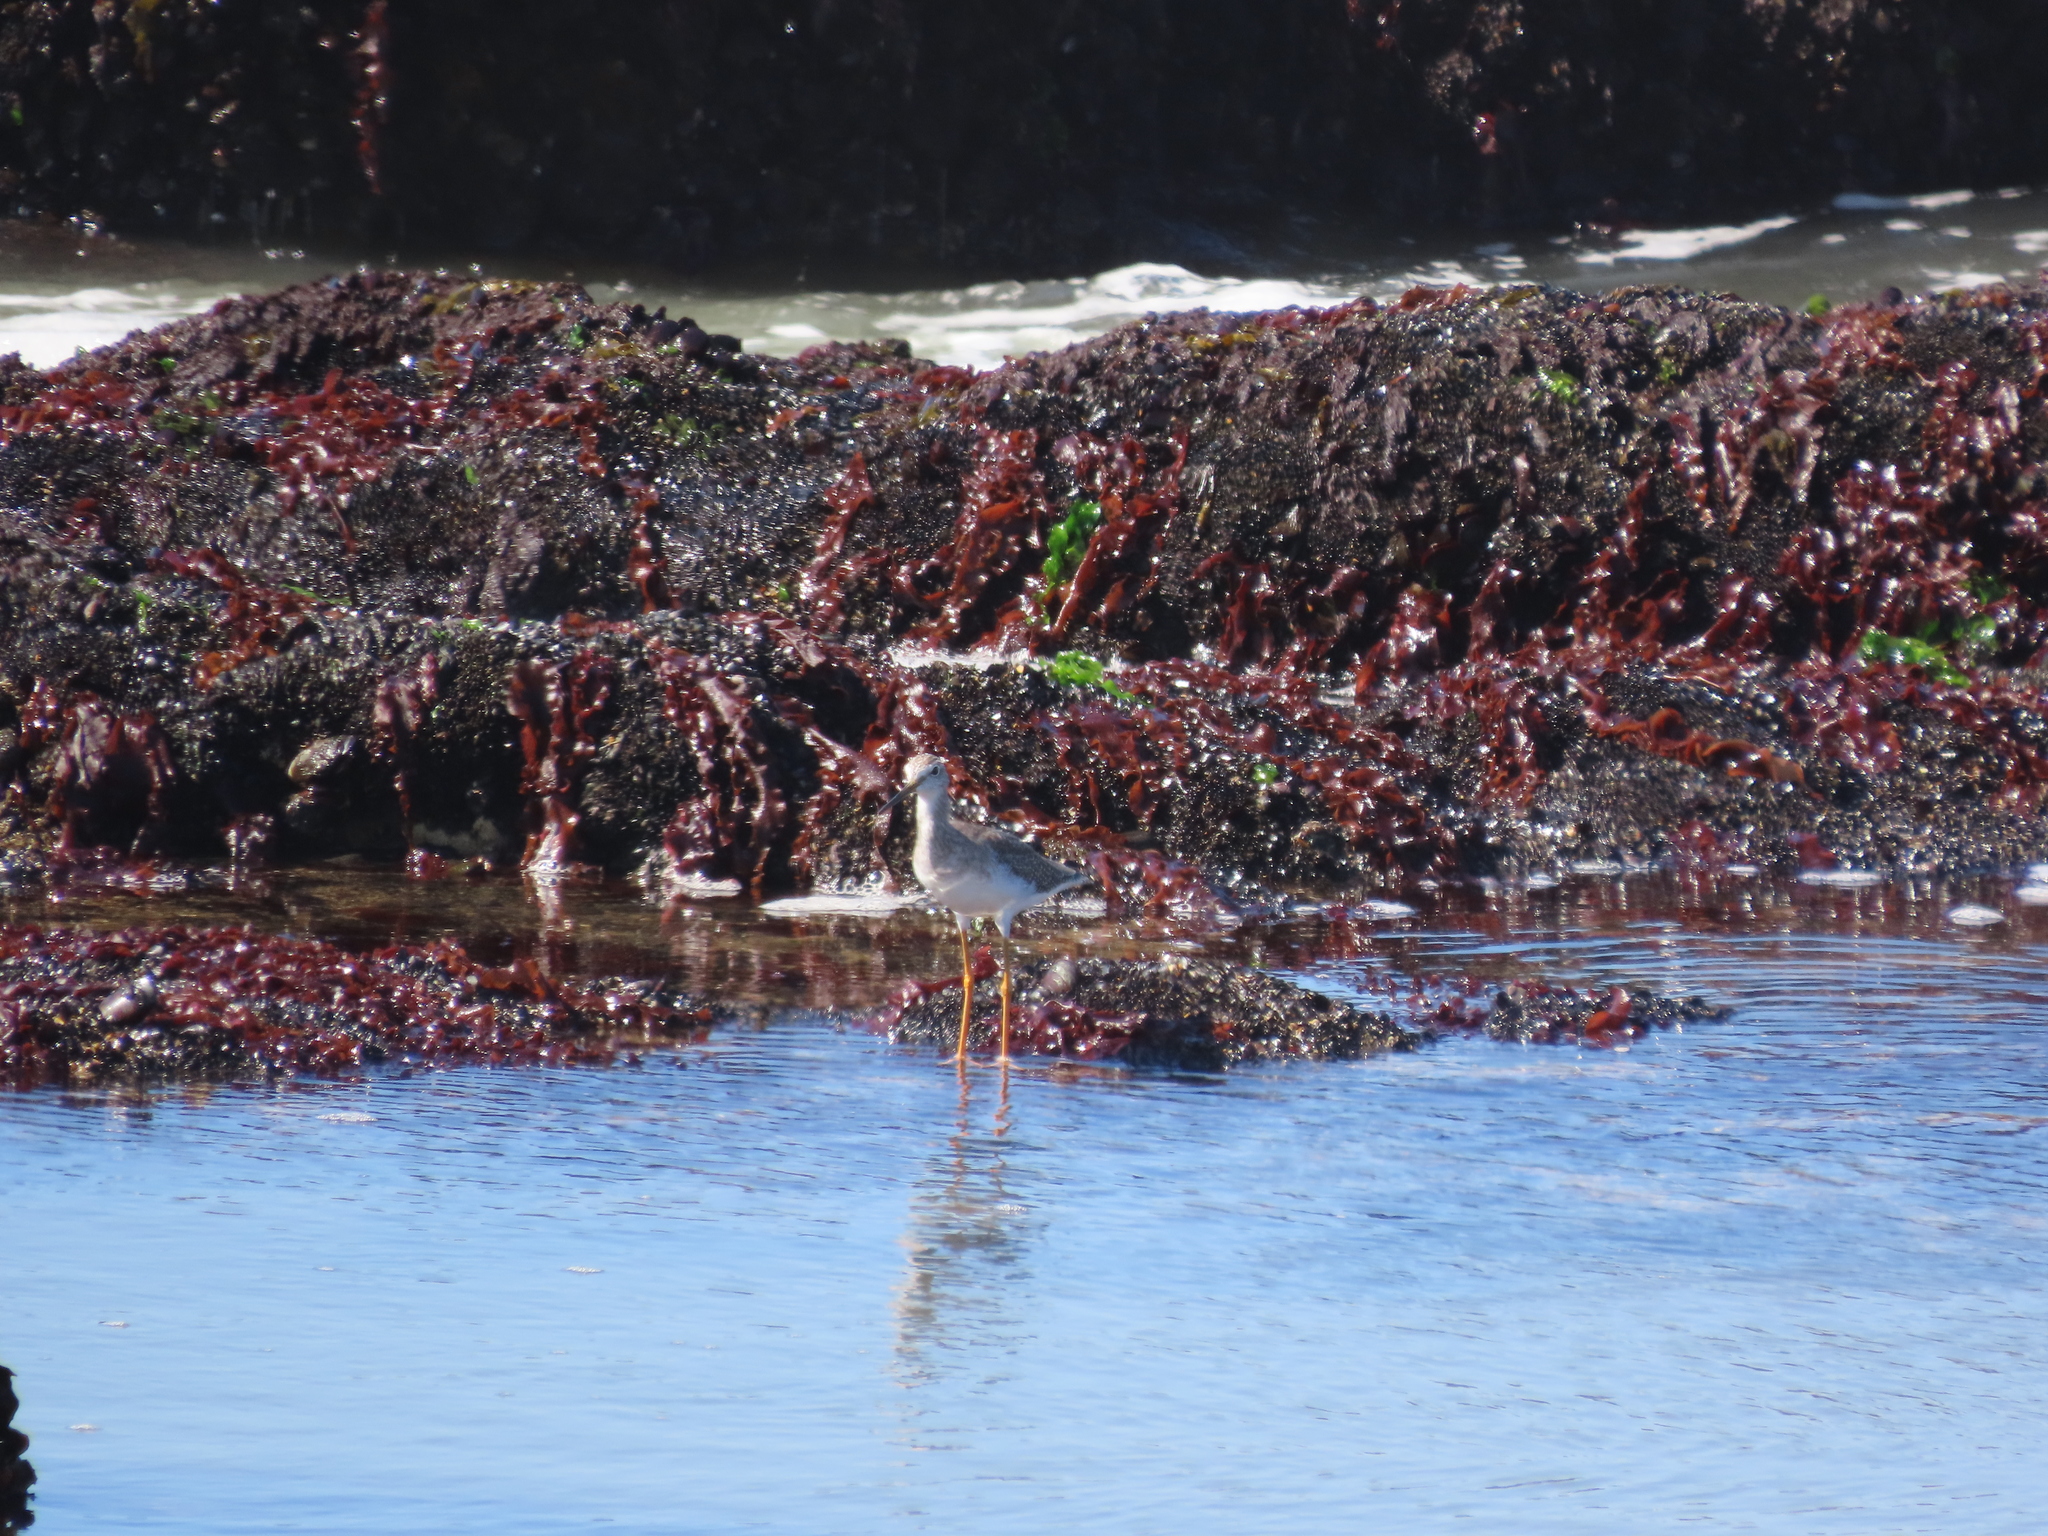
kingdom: Animalia
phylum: Chordata
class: Aves
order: Charadriiformes
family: Scolopacidae
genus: Tringa
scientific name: Tringa melanoleuca
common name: Greater yellowlegs
